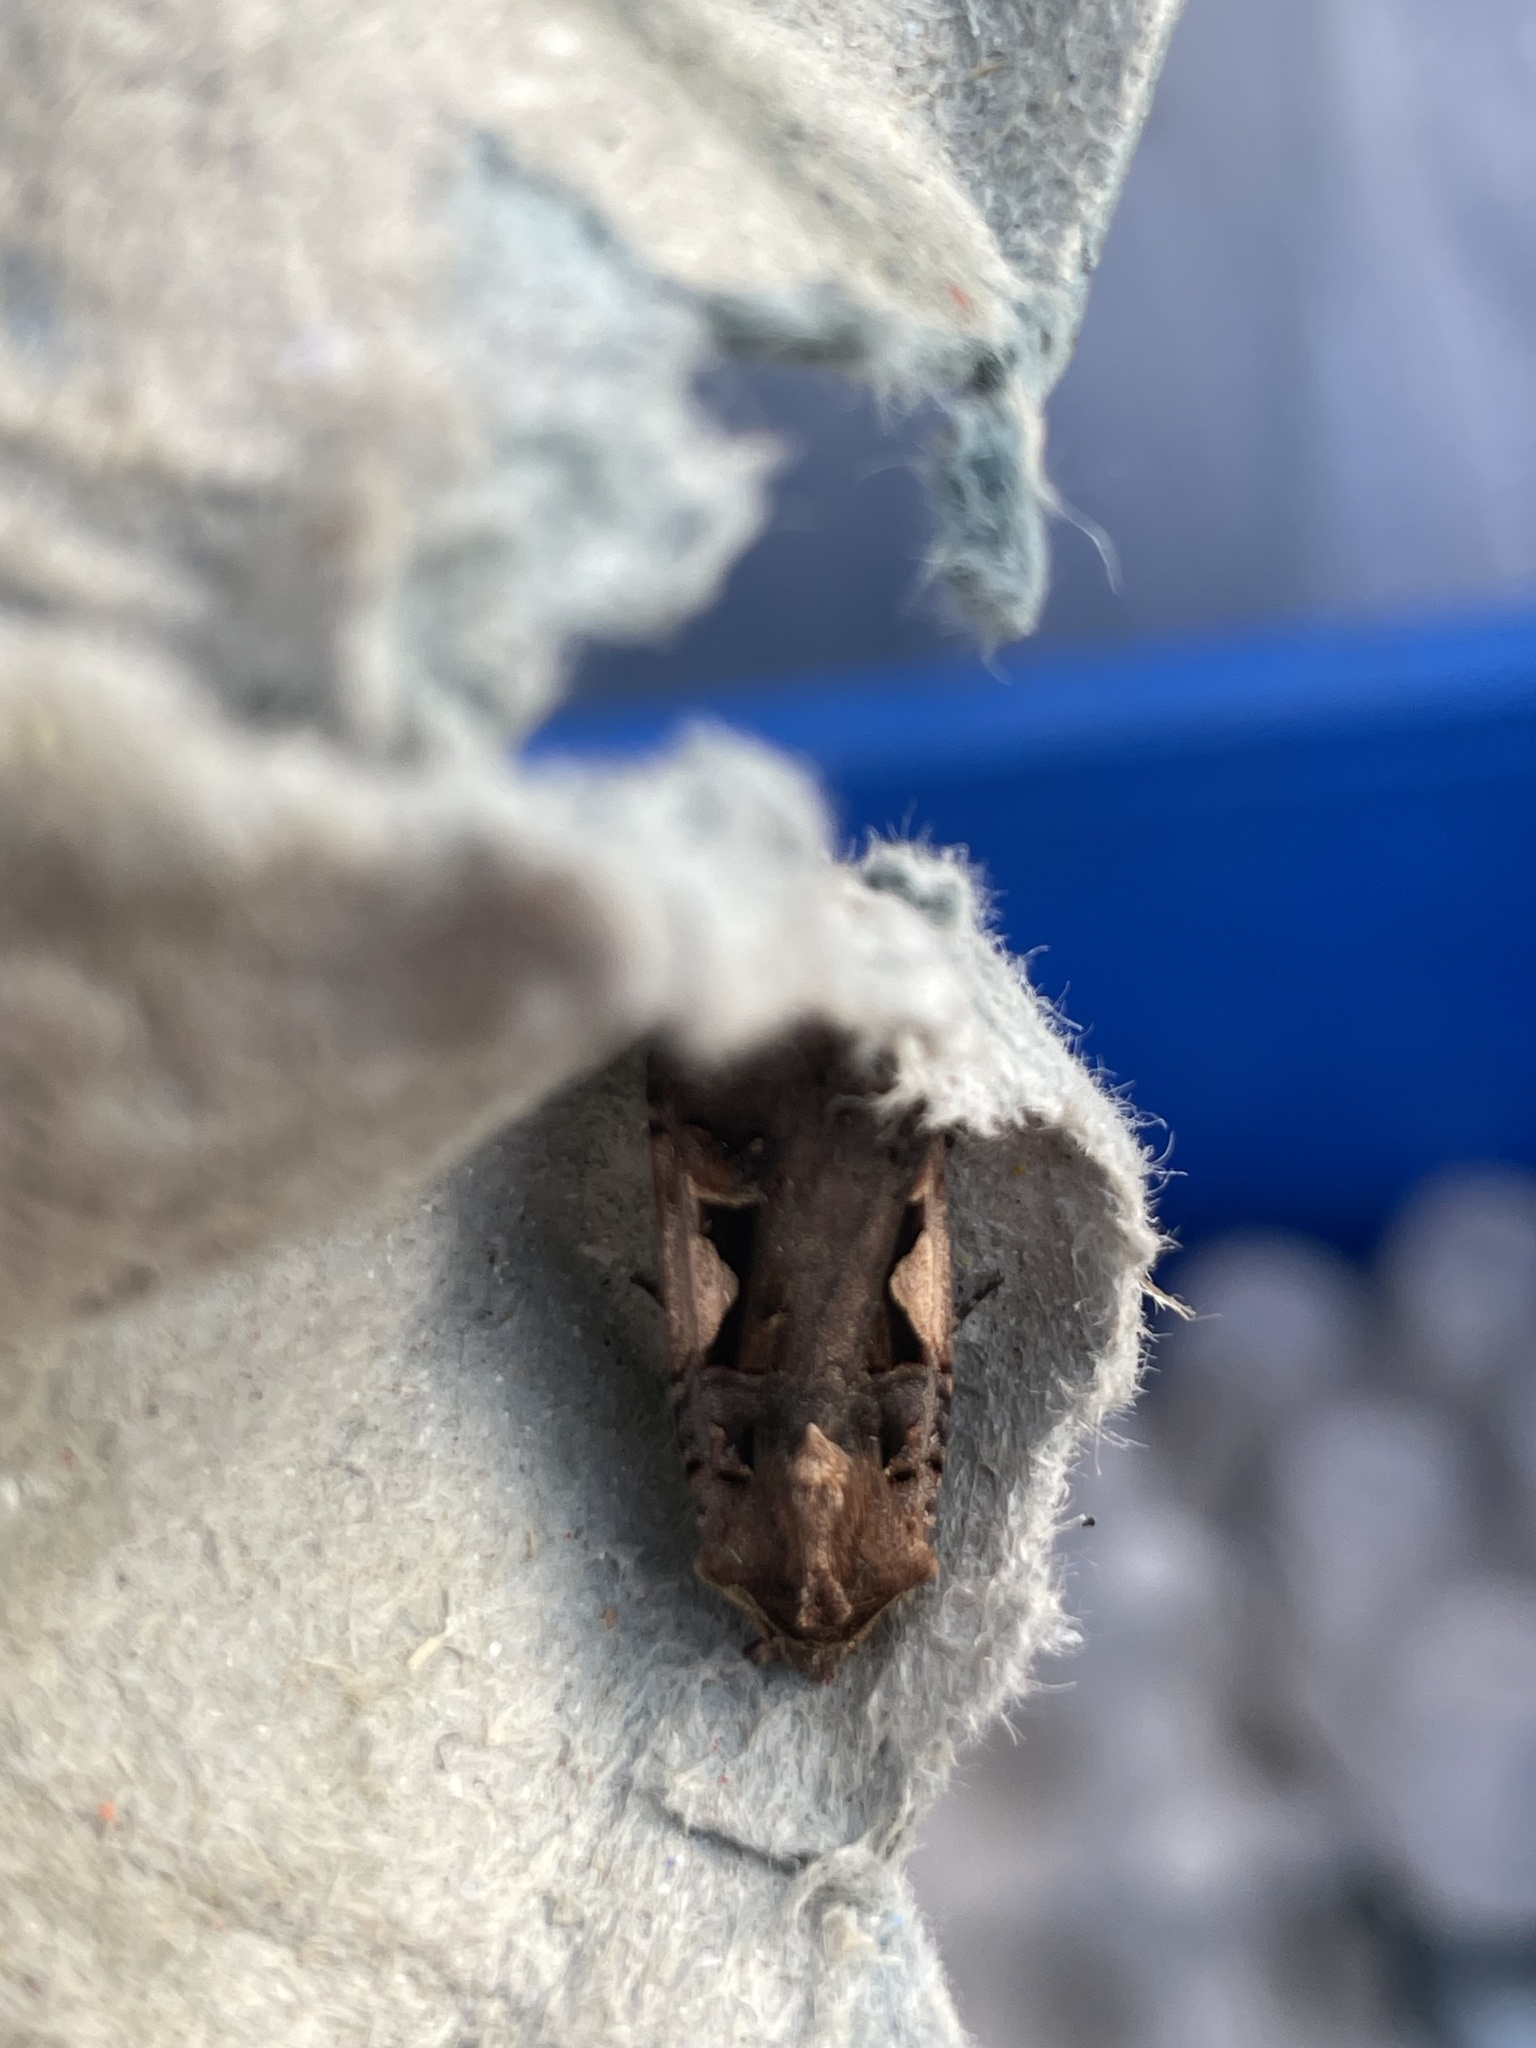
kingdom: Animalia
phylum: Arthropoda
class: Insecta
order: Lepidoptera
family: Noctuidae
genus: Xestia
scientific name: Xestia c-nigrum
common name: Setaceous hebrew character
